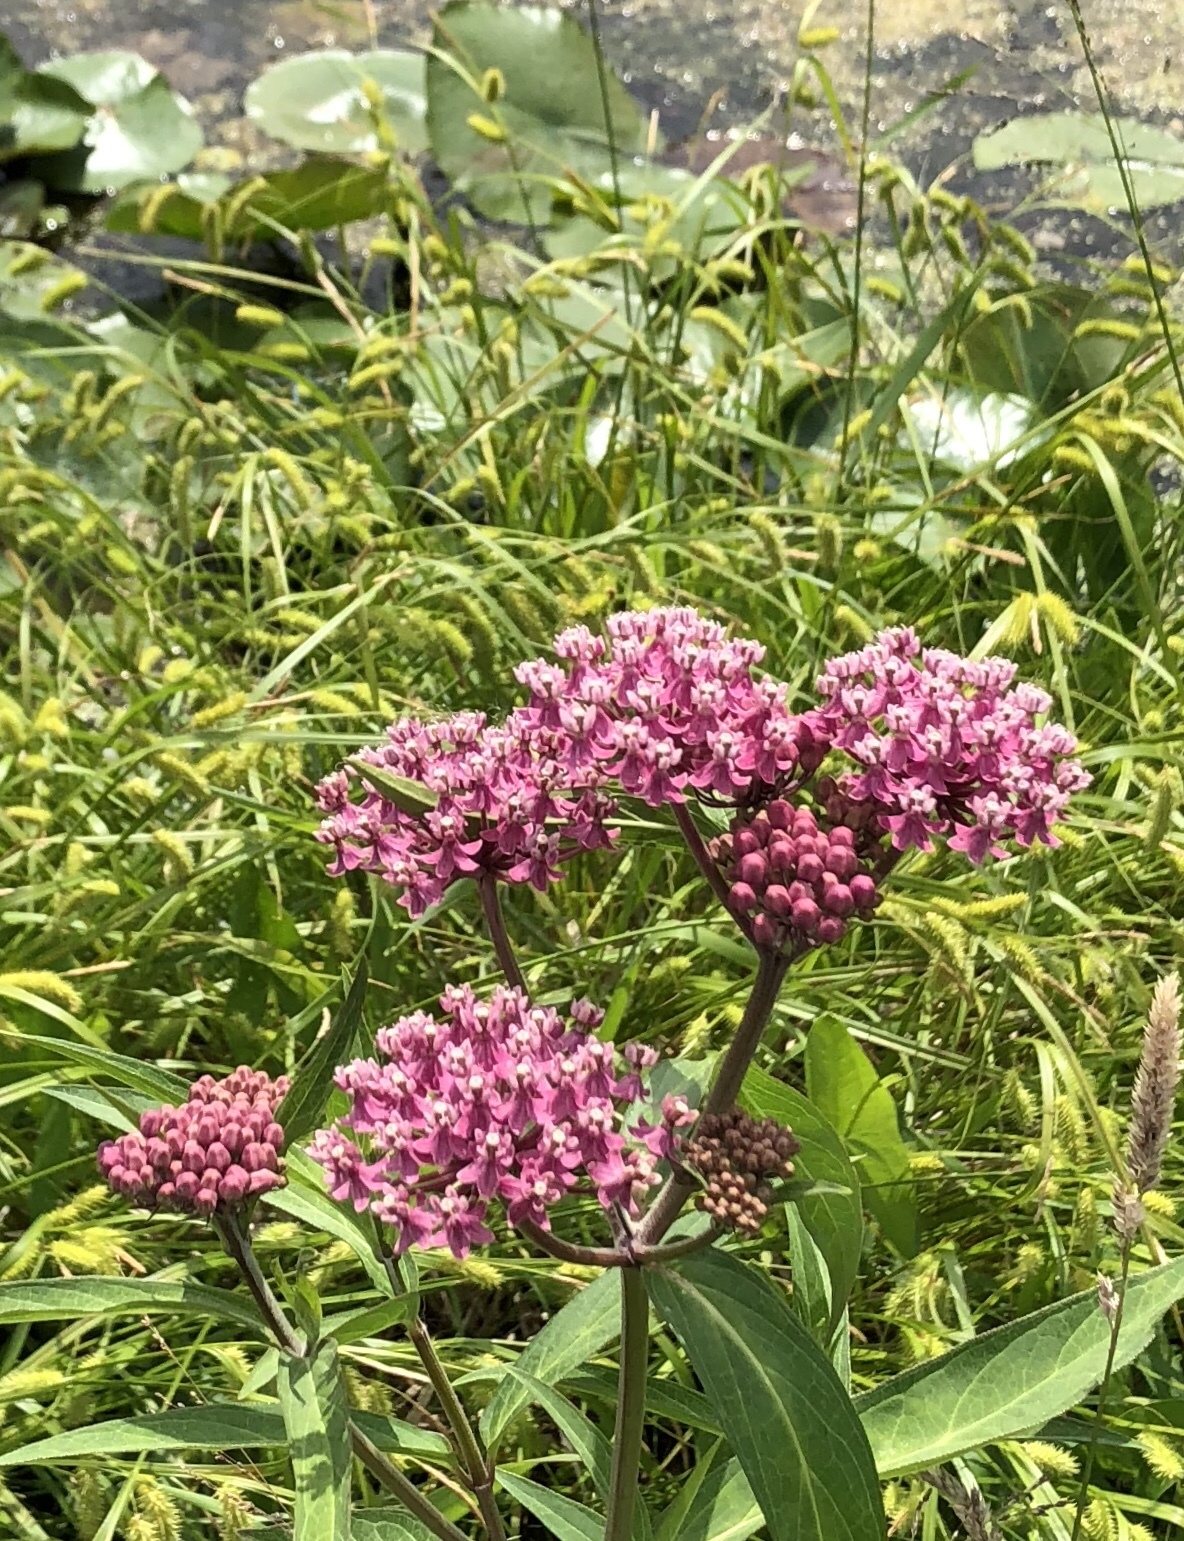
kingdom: Plantae
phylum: Tracheophyta
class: Magnoliopsida
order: Gentianales
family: Apocynaceae
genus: Asclepias
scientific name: Asclepias incarnata
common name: Swamp milkweed
